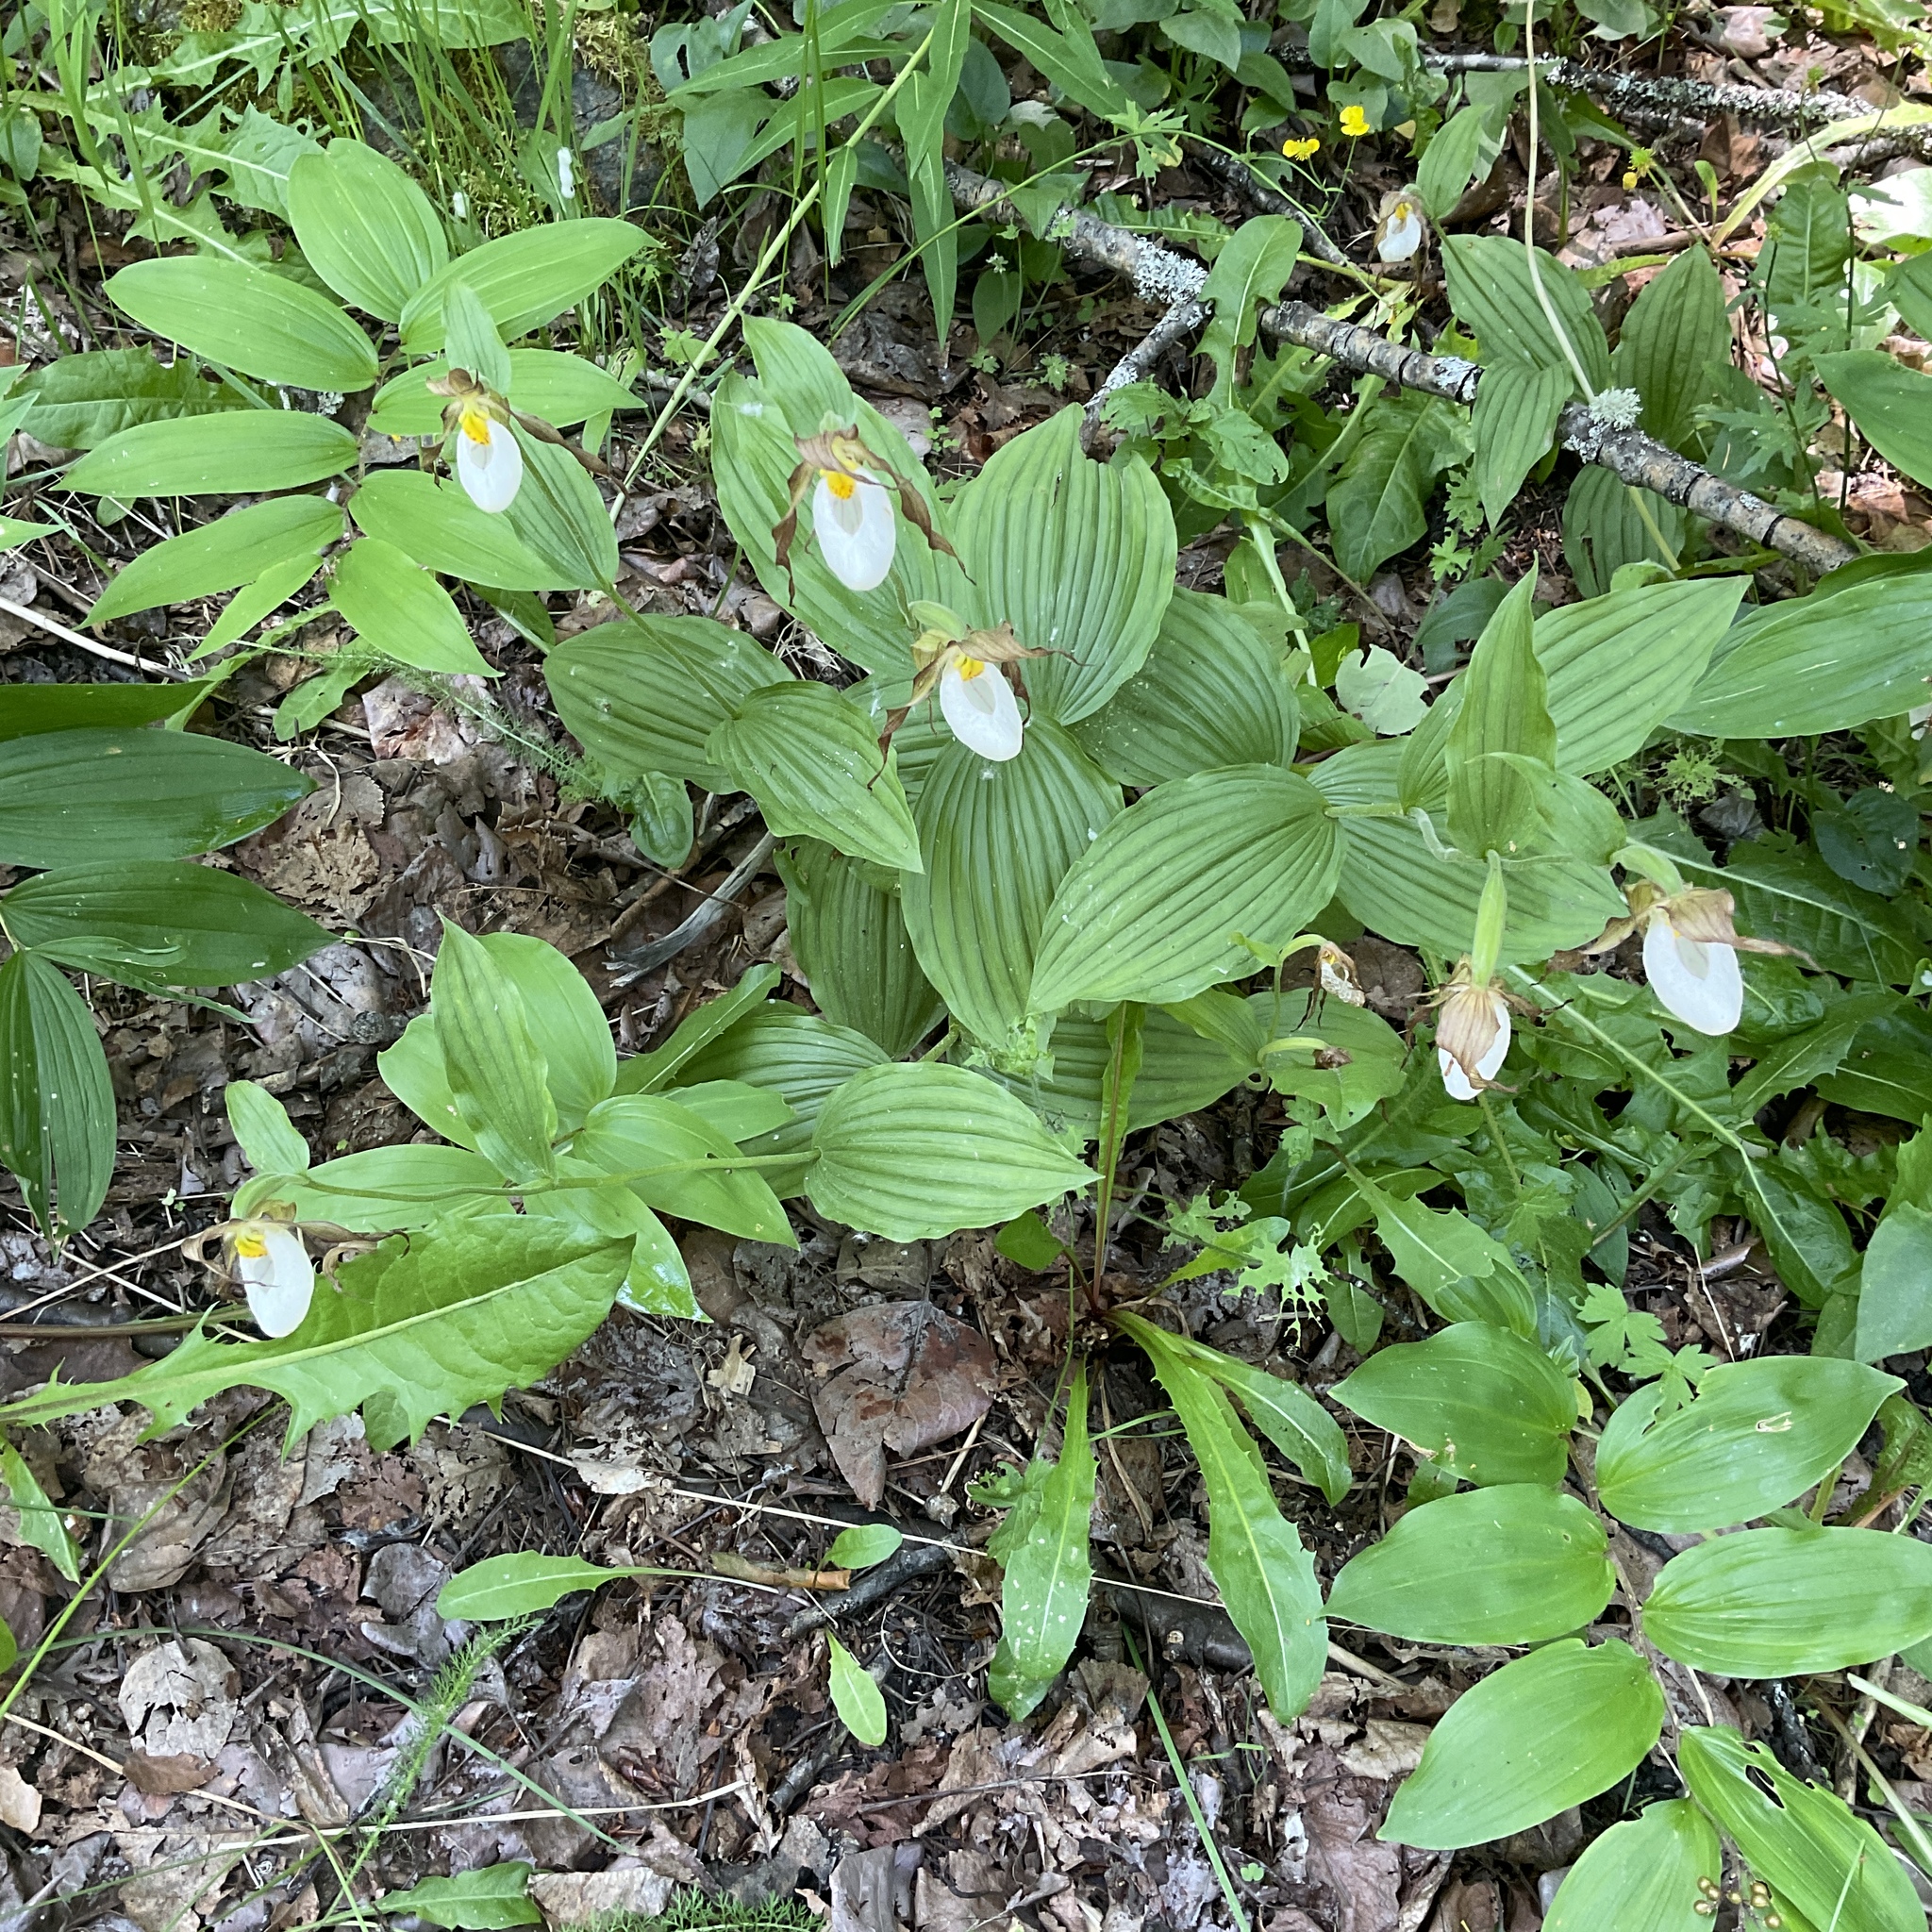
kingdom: Plantae
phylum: Tracheophyta
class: Liliopsida
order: Asparagales
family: Orchidaceae
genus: Cypripedium
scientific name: Cypripedium montanum
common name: Mountain lady's-slipper
